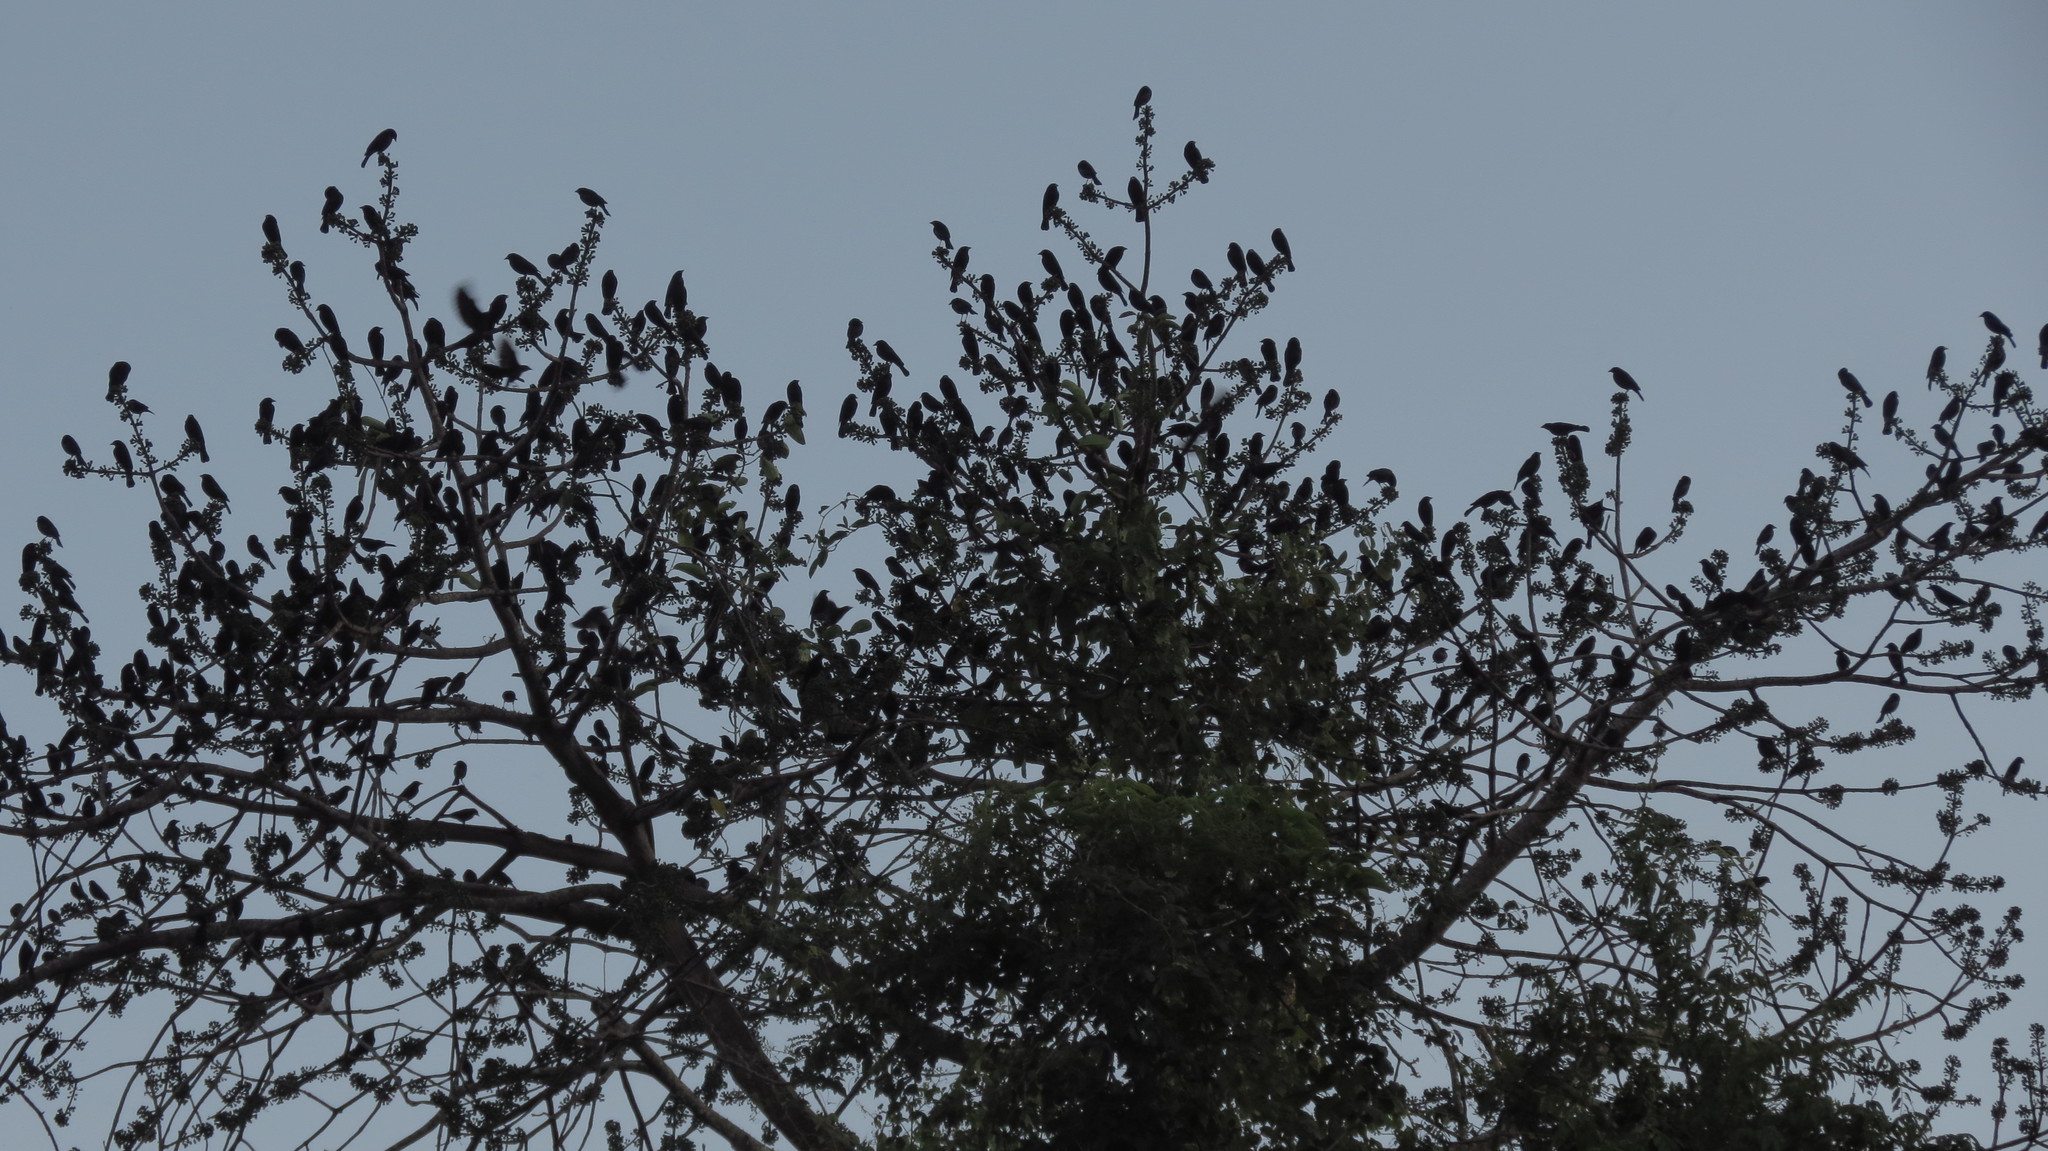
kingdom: Animalia
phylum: Chordata
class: Aves
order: Passeriformes
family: Icteridae
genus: Molothrus
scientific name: Molothrus aeneus
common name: Bronzed cowbird
